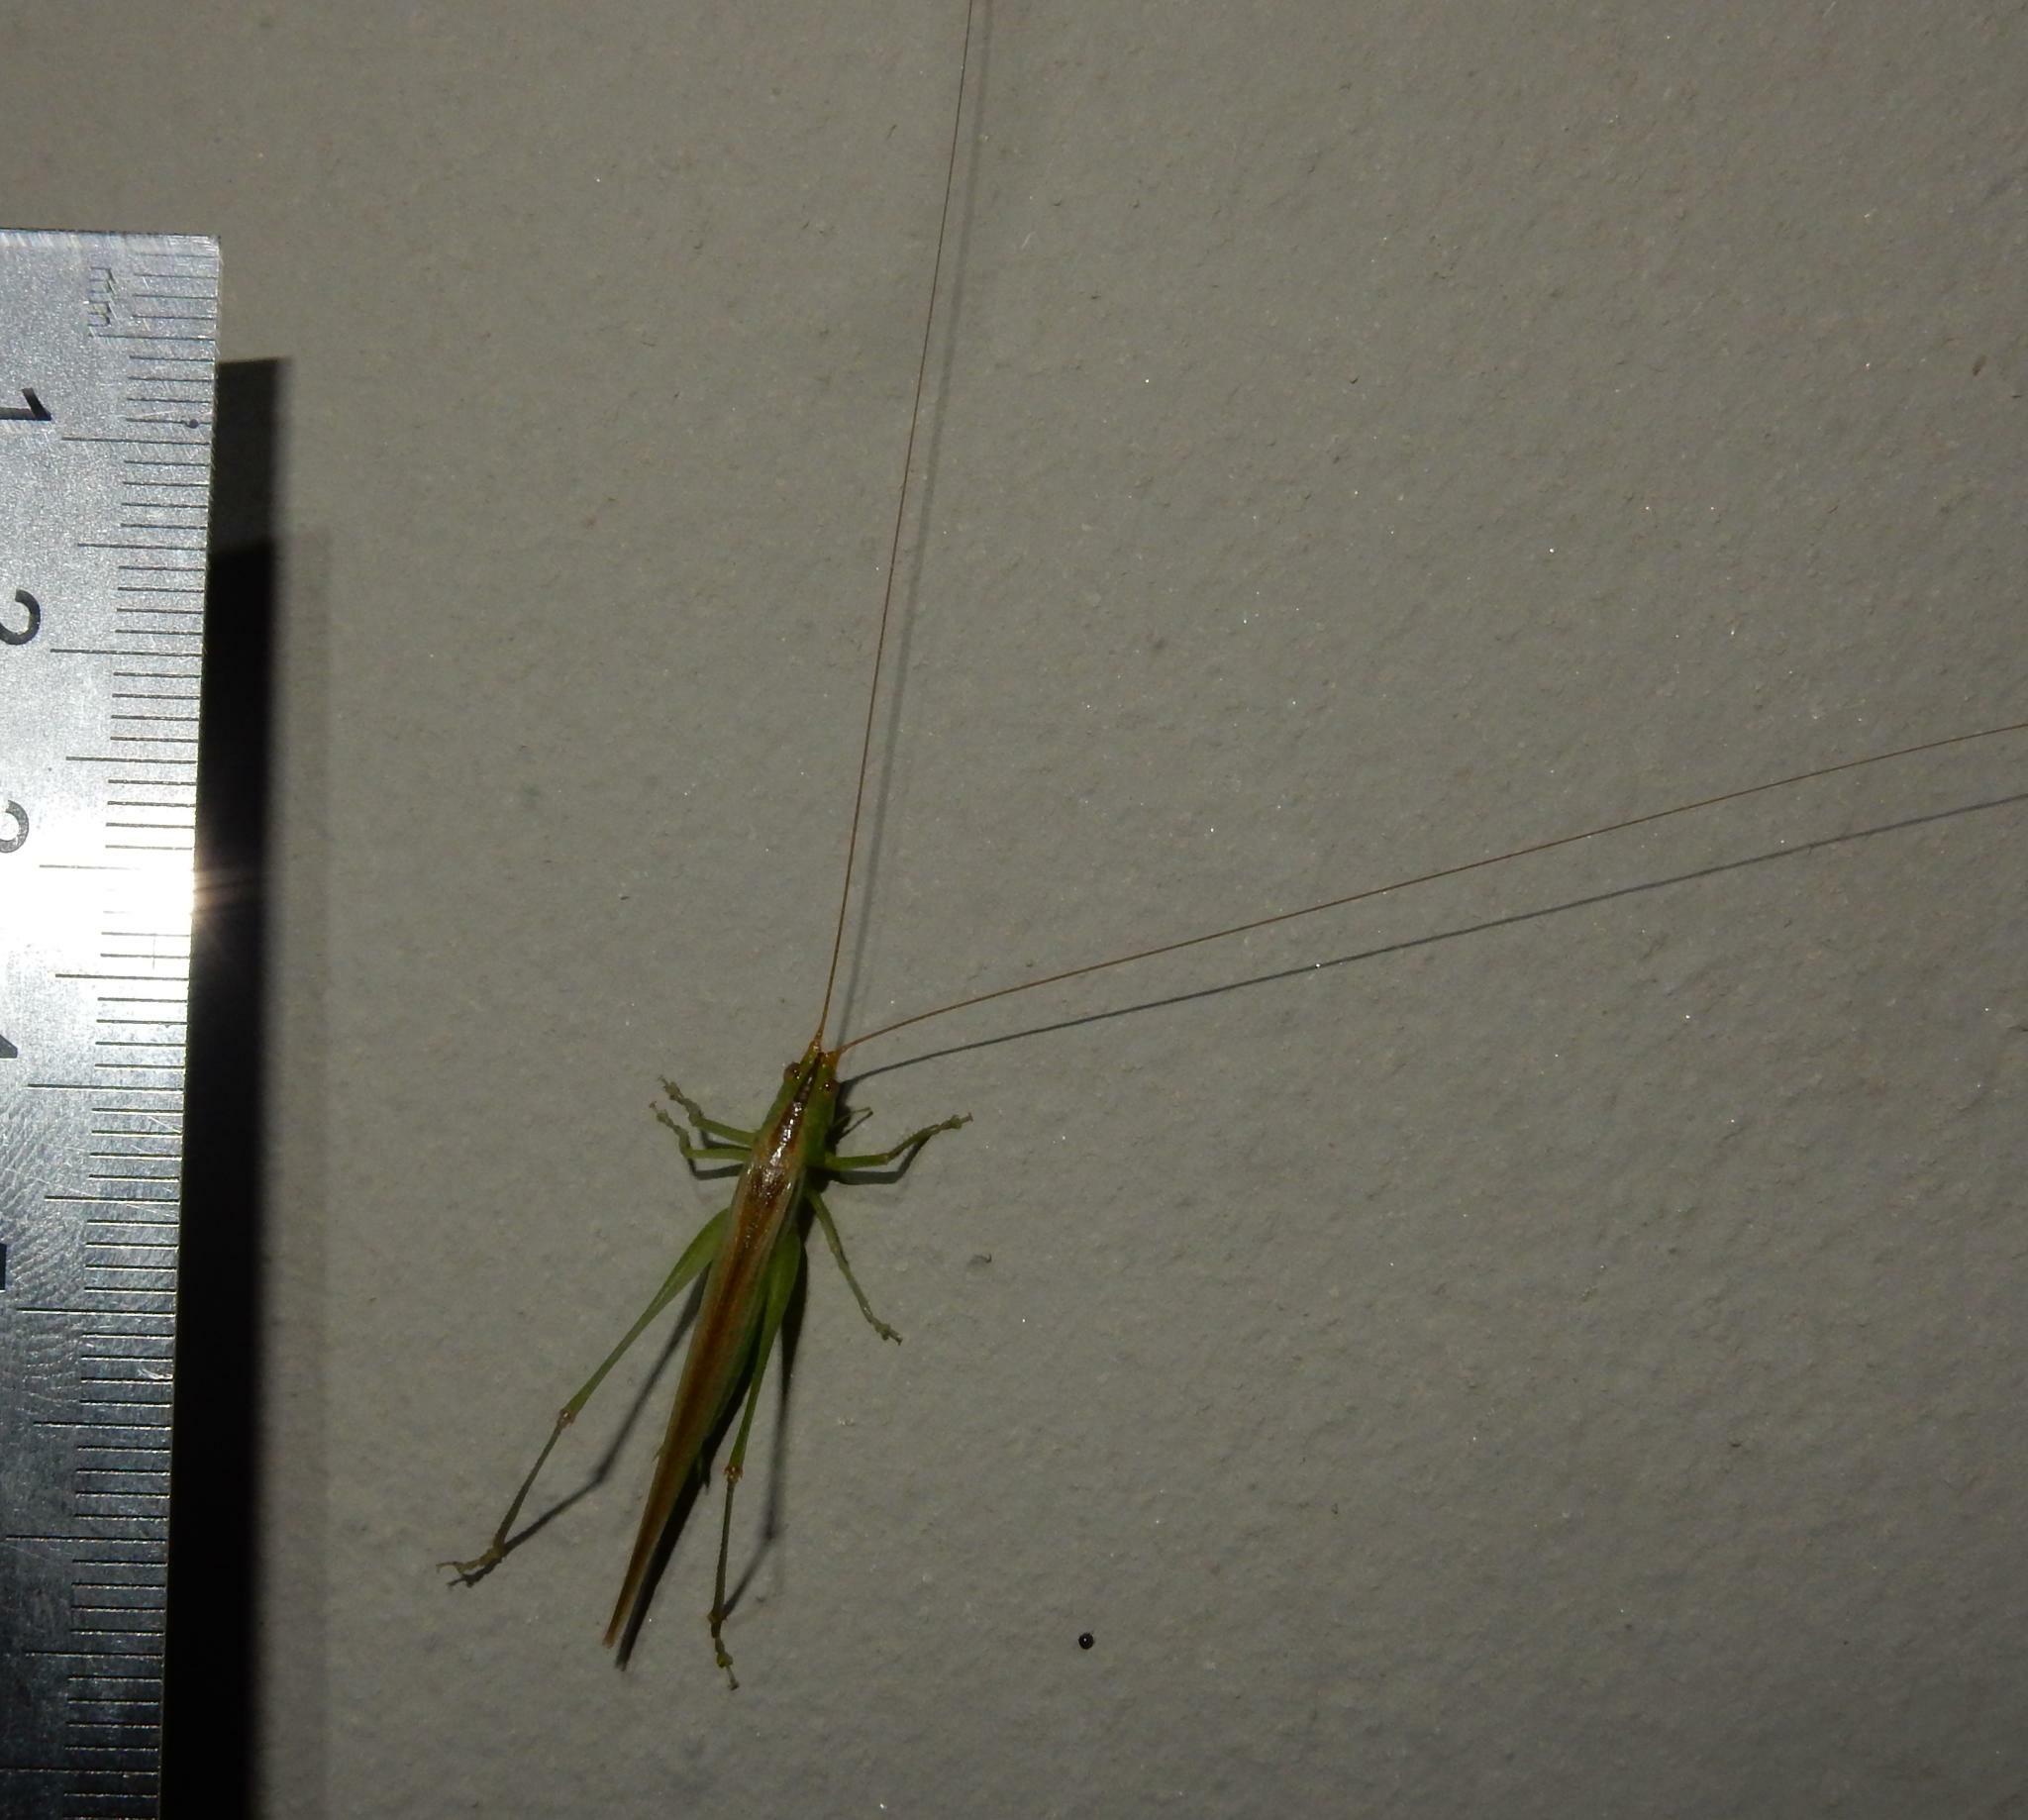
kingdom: Animalia
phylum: Arthropoda
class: Insecta
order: Orthoptera
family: Tettigoniidae
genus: Conocephalus
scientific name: Conocephalus conocephalus
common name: African meadow katydid
